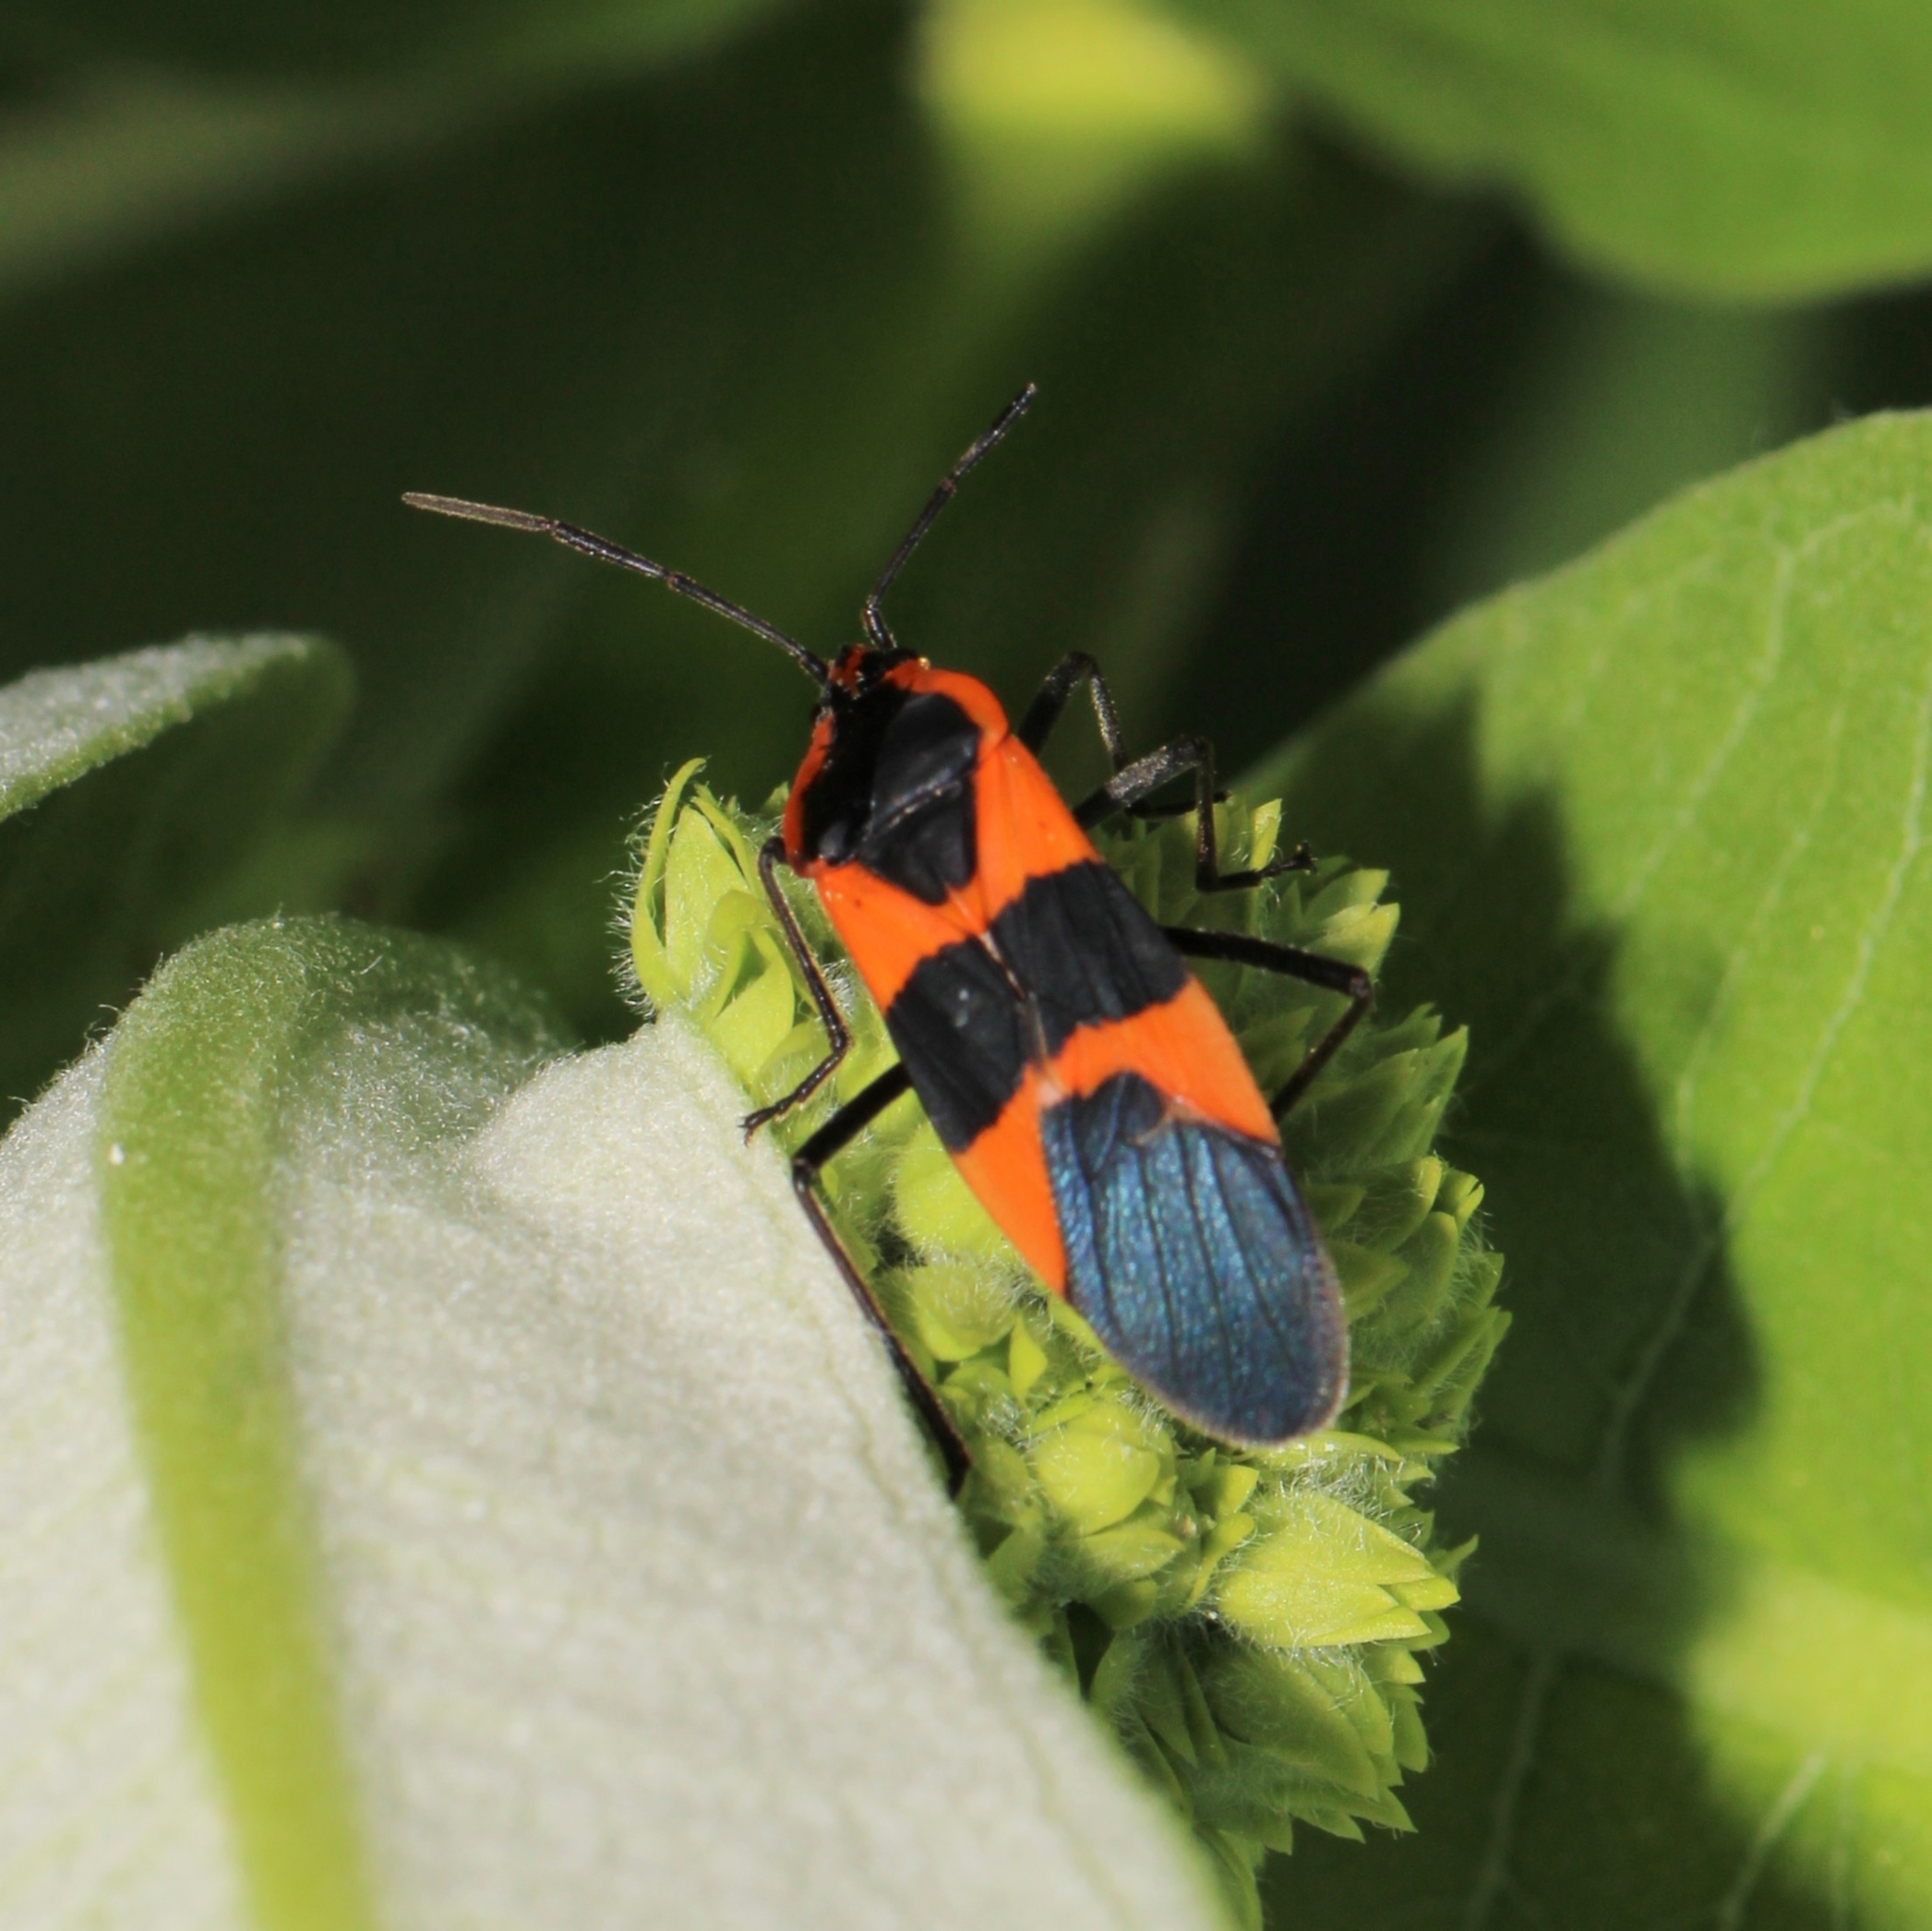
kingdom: Animalia
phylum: Arthropoda
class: Insecta
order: Hemiptera
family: Lygaeidae
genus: Oncopeltus
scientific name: Oncopeltus fasciatus
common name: Large milkweed bug
